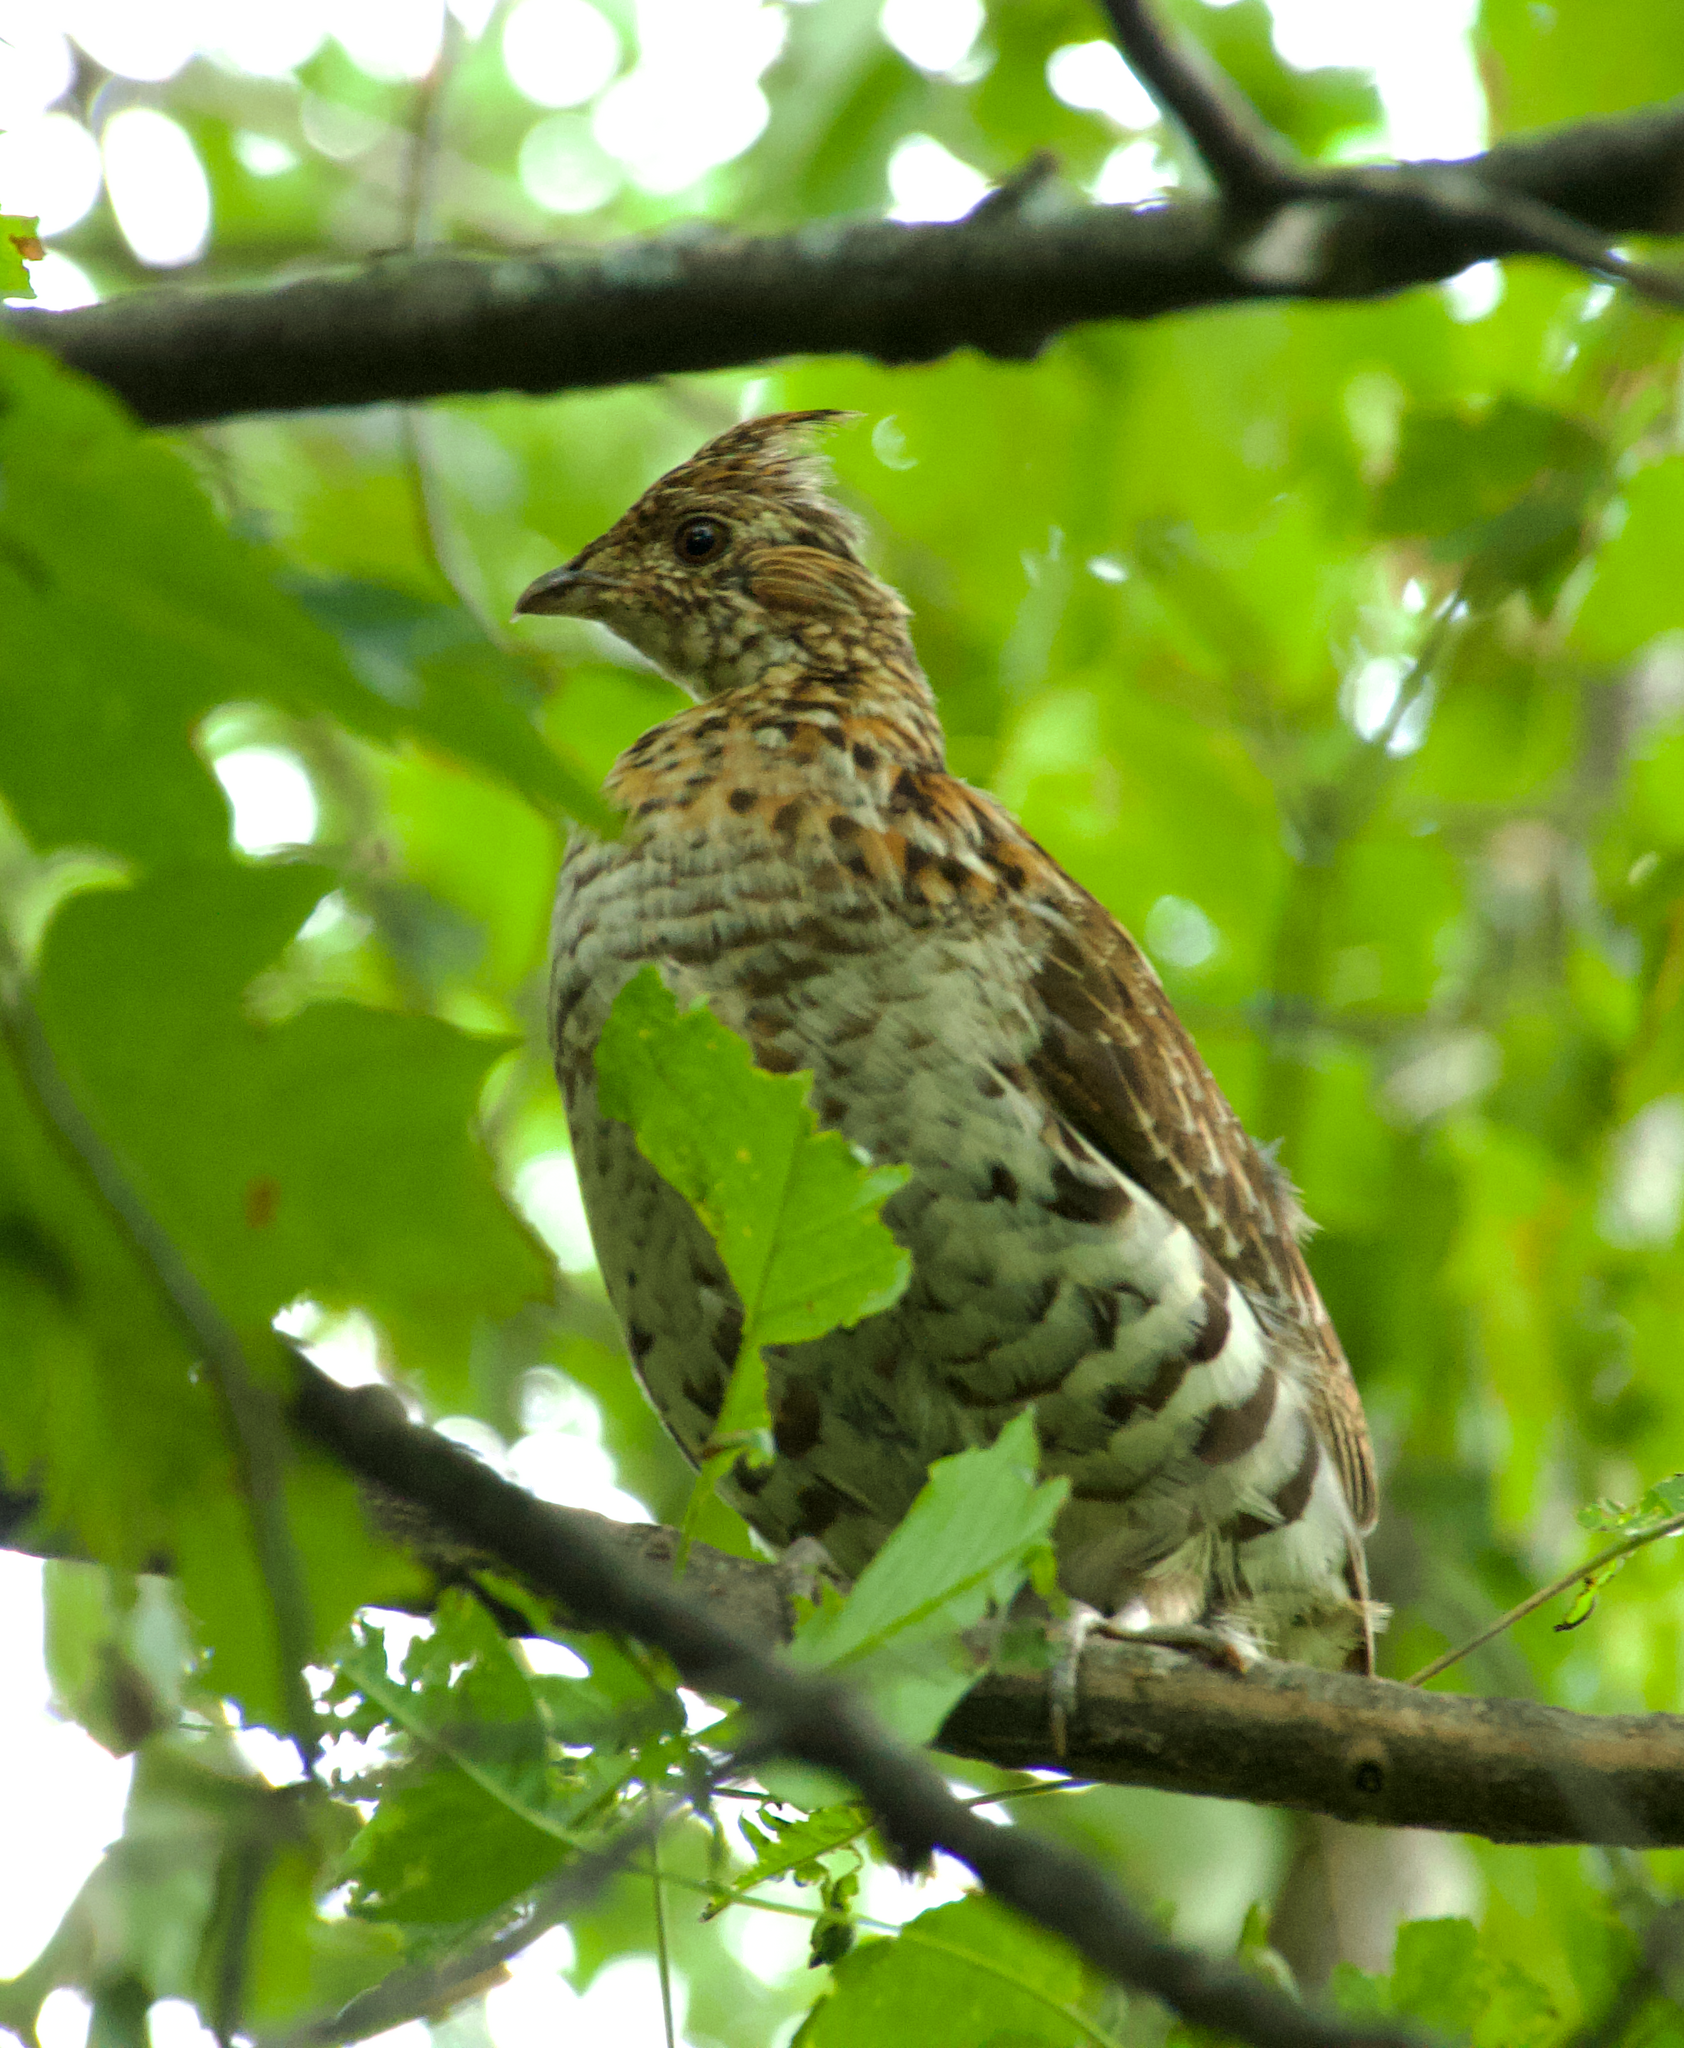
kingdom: Animalia
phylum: Chordata
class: Aves
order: Galliformes
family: Phasianidae
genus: Bonasa
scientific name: Bonasa umbellus
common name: Ruffed grouse
